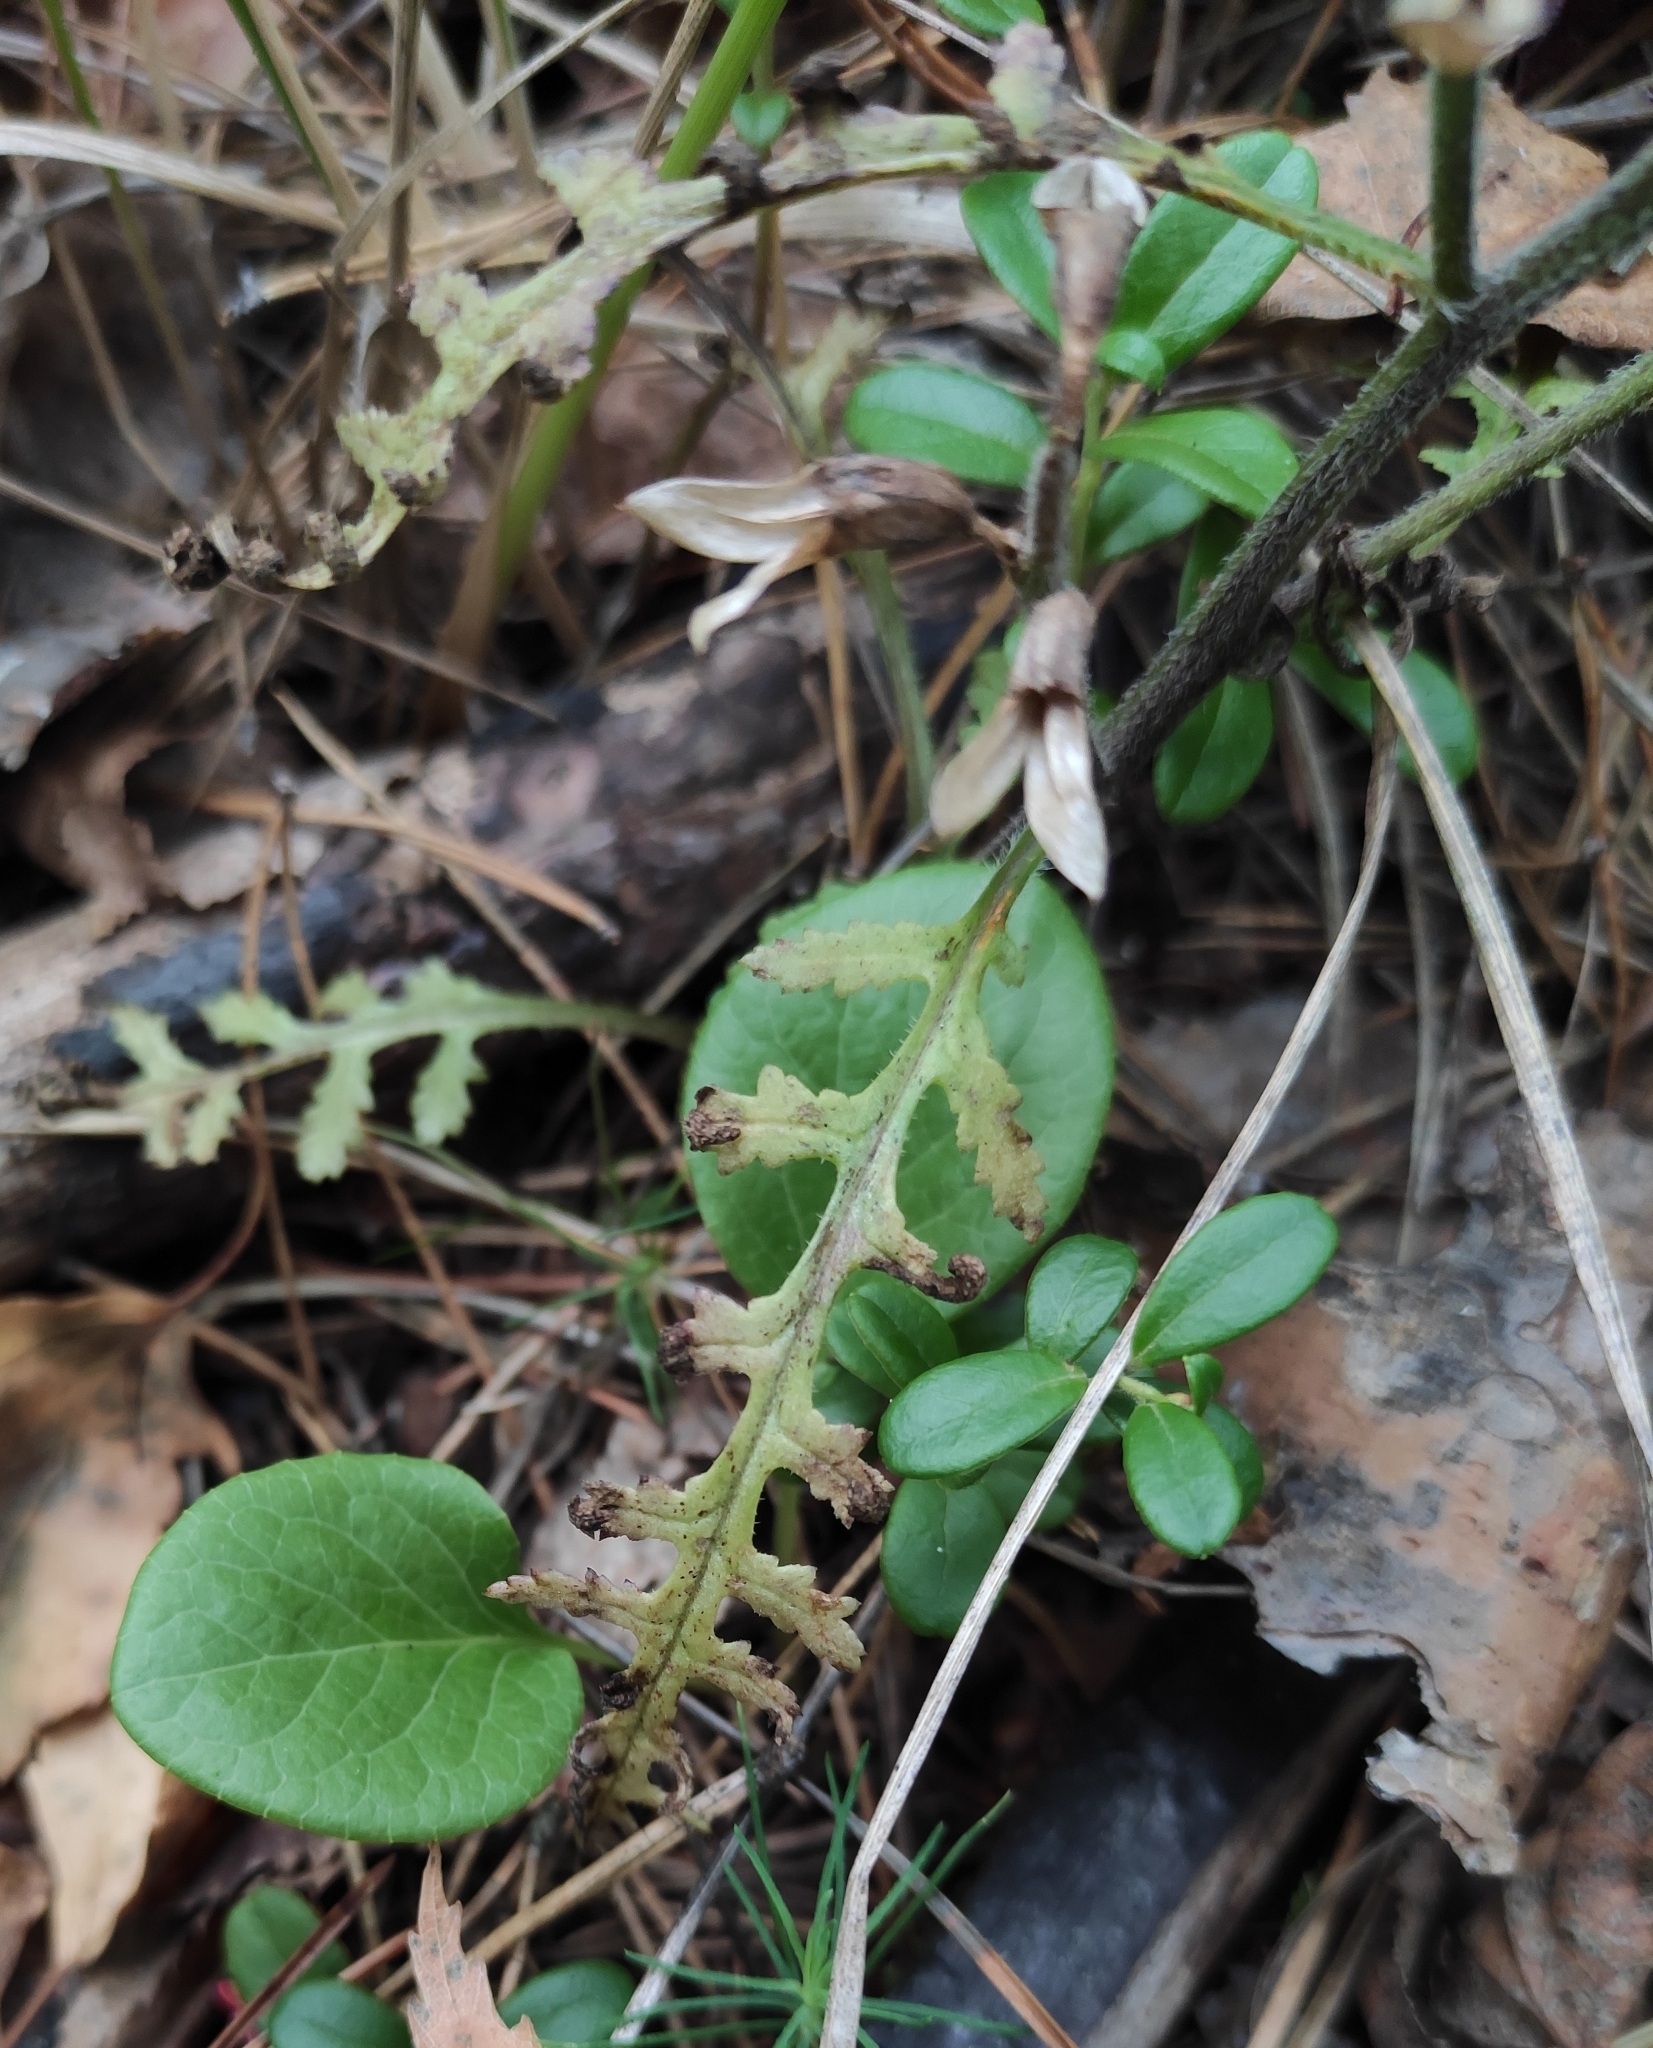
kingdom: Plantae
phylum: Tracheophyta
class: Magnoliopsida
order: Lamiales
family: Orobanchaceae
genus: Pedicularis
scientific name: Pedicularis labradorica
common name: Labrador lousewort
